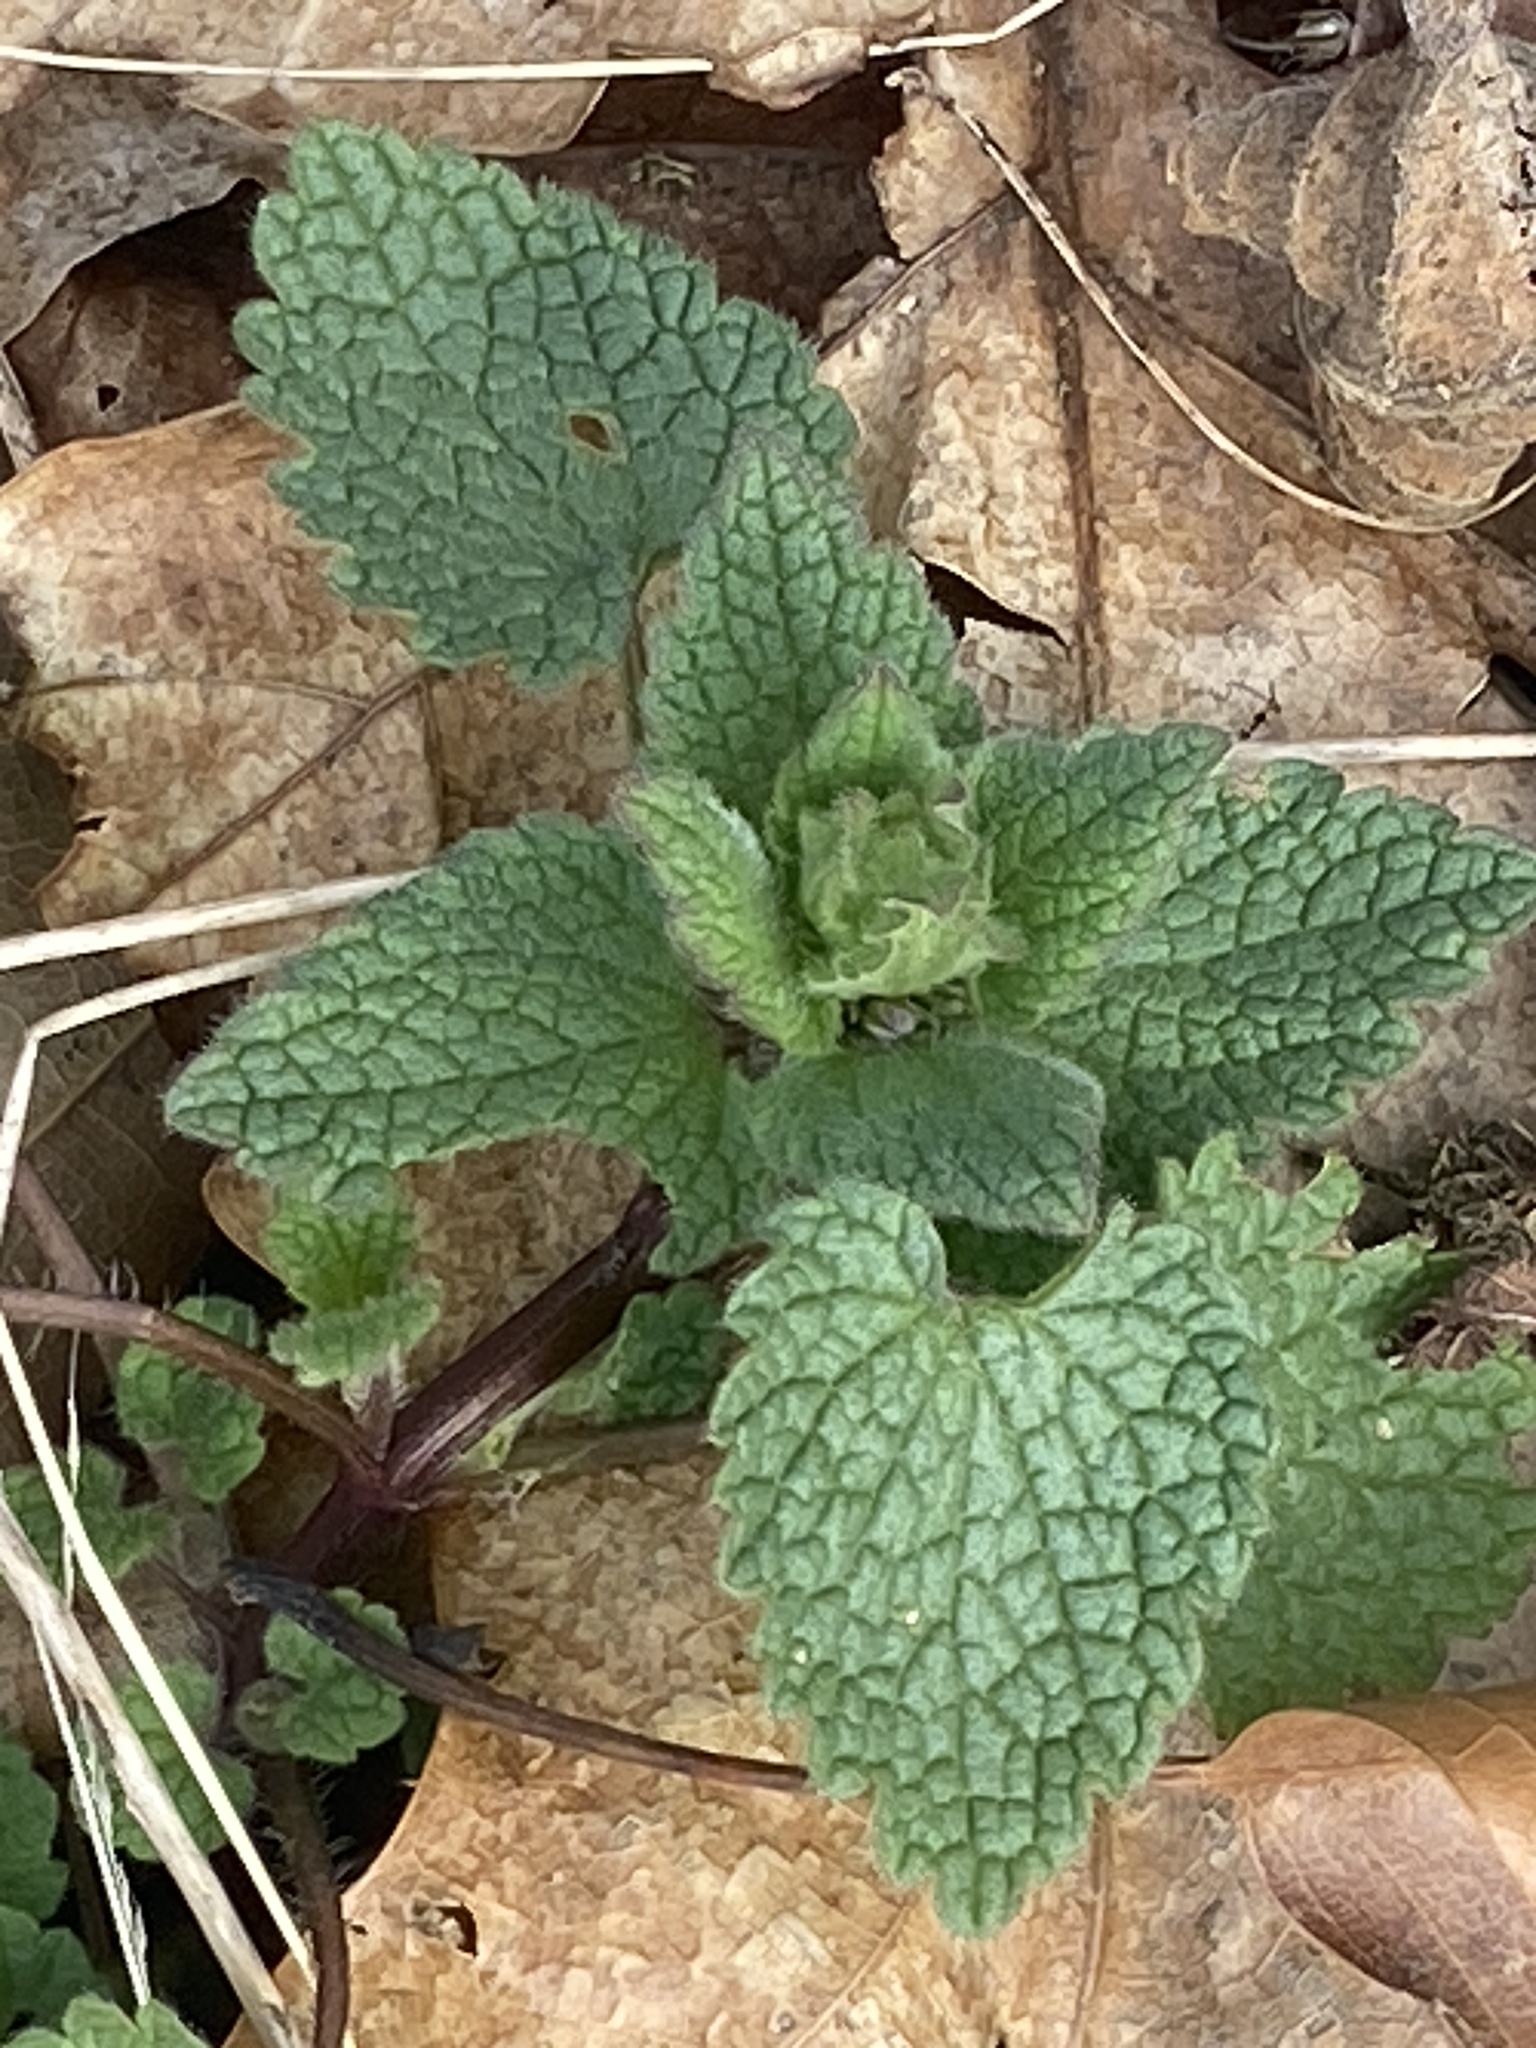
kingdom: Plantae
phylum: Tracheophyta
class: Magnoliopsida
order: Lamiales
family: Lamiaceae
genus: Lamium
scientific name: Lamium purpureum
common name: Red dead-nettle
